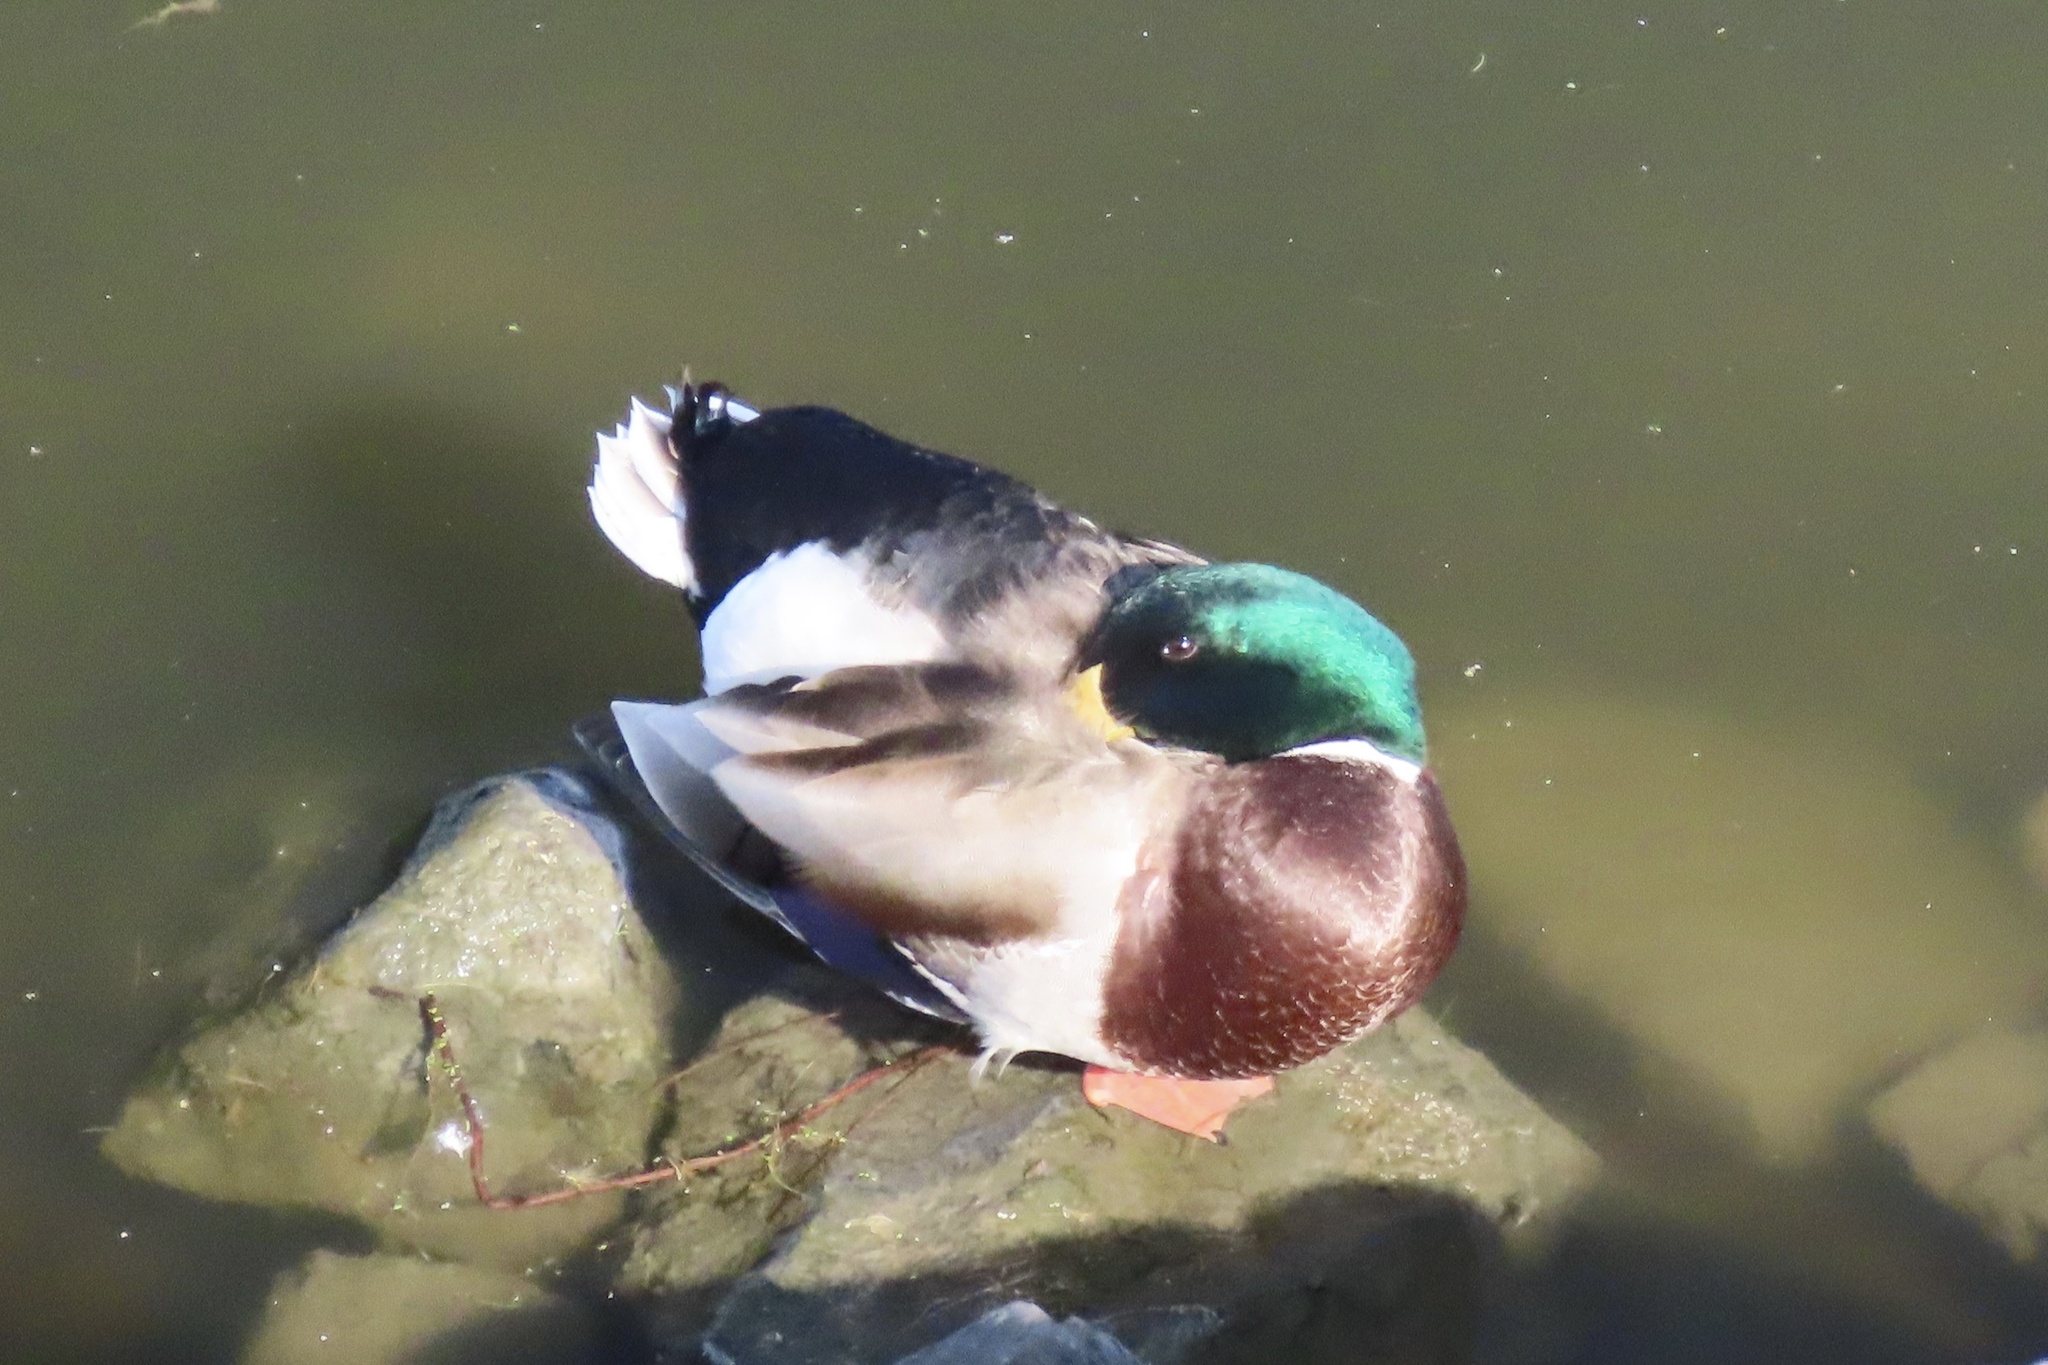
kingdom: Animalia
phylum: Chordata
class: Aves
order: Anseriformes
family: Anatidae
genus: Anas
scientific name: Anas platyrhynchos
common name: Mallard
